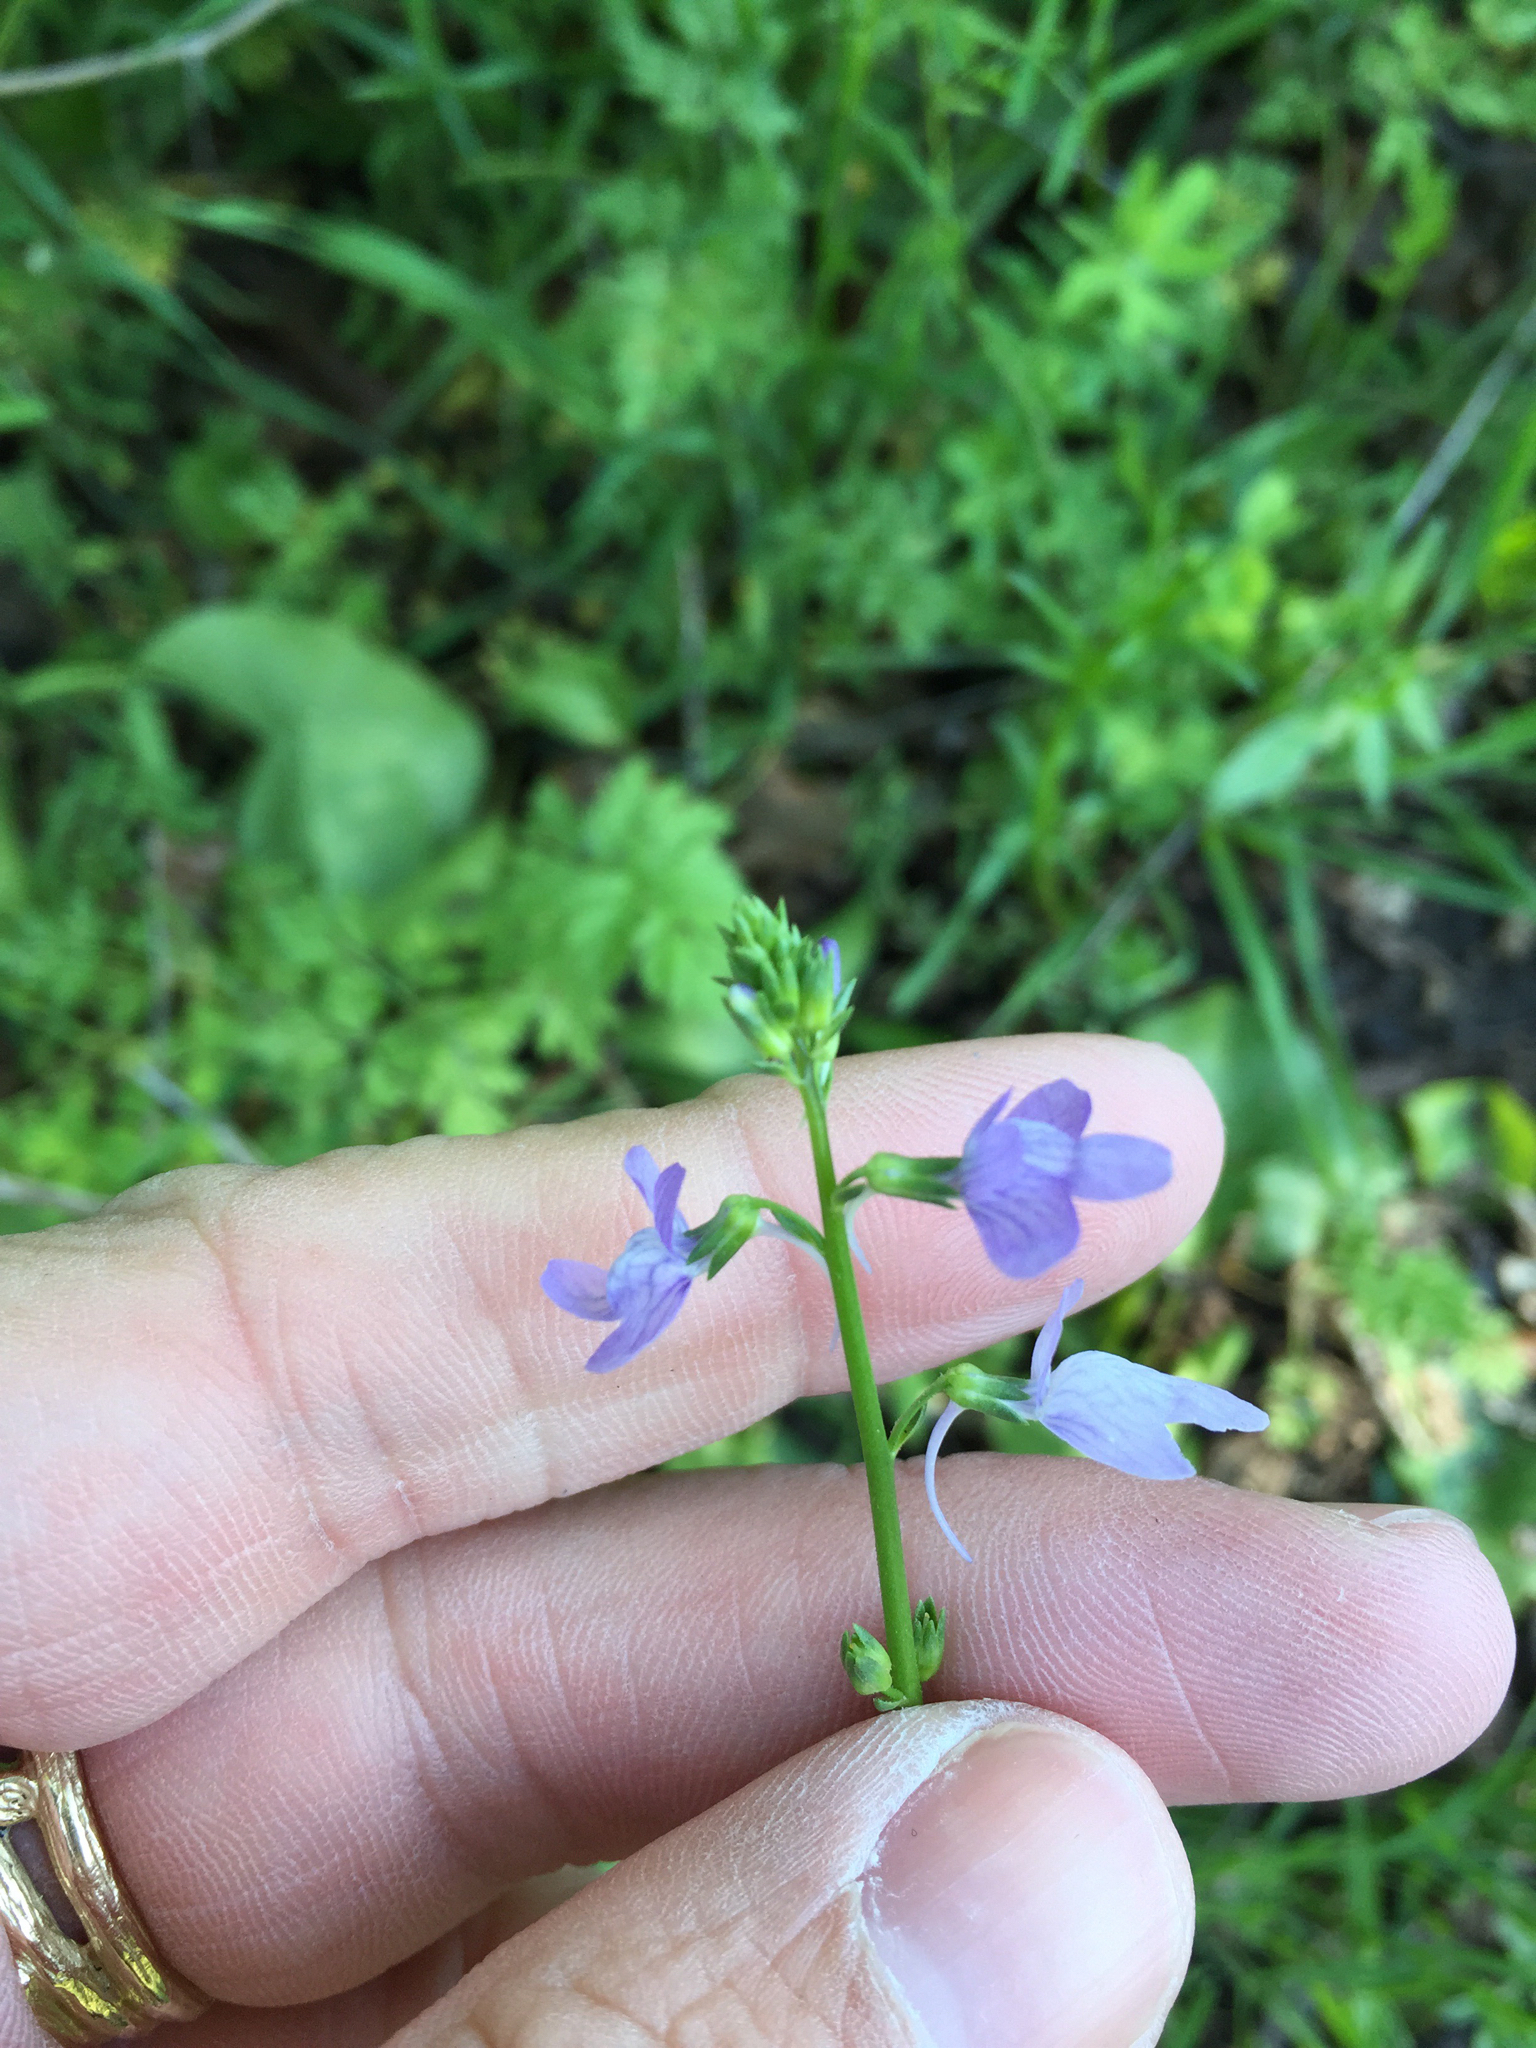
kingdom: Plantae
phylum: Tracheophyta
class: Magnoliopsida
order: Lamiales
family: Plantaginaceae
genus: Nuttallanthus
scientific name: Nuttallanthus texanus
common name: Texas toadflax
